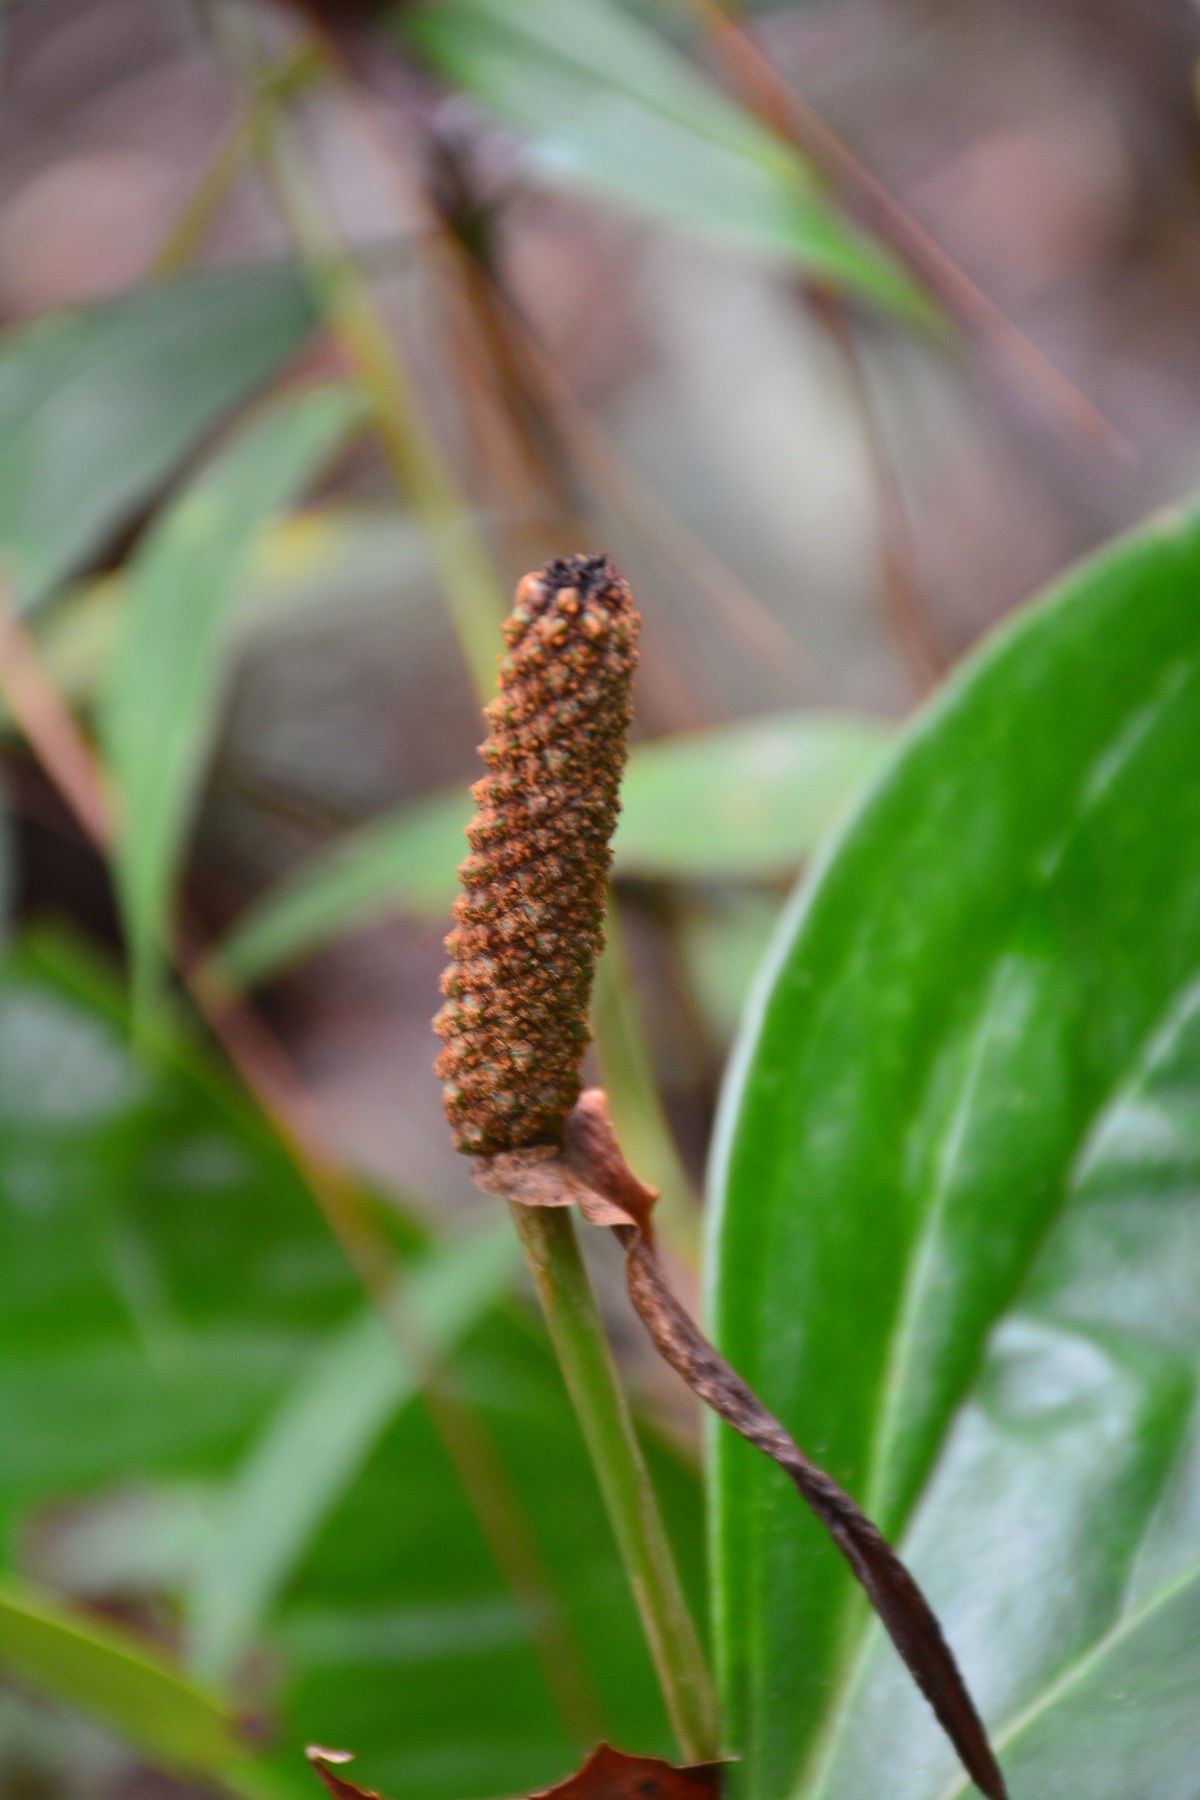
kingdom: Plantae
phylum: Tracheophyta
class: Liliopsida
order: Alismatales
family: Araceae
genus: Anthurium
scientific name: Anthurium lucens
